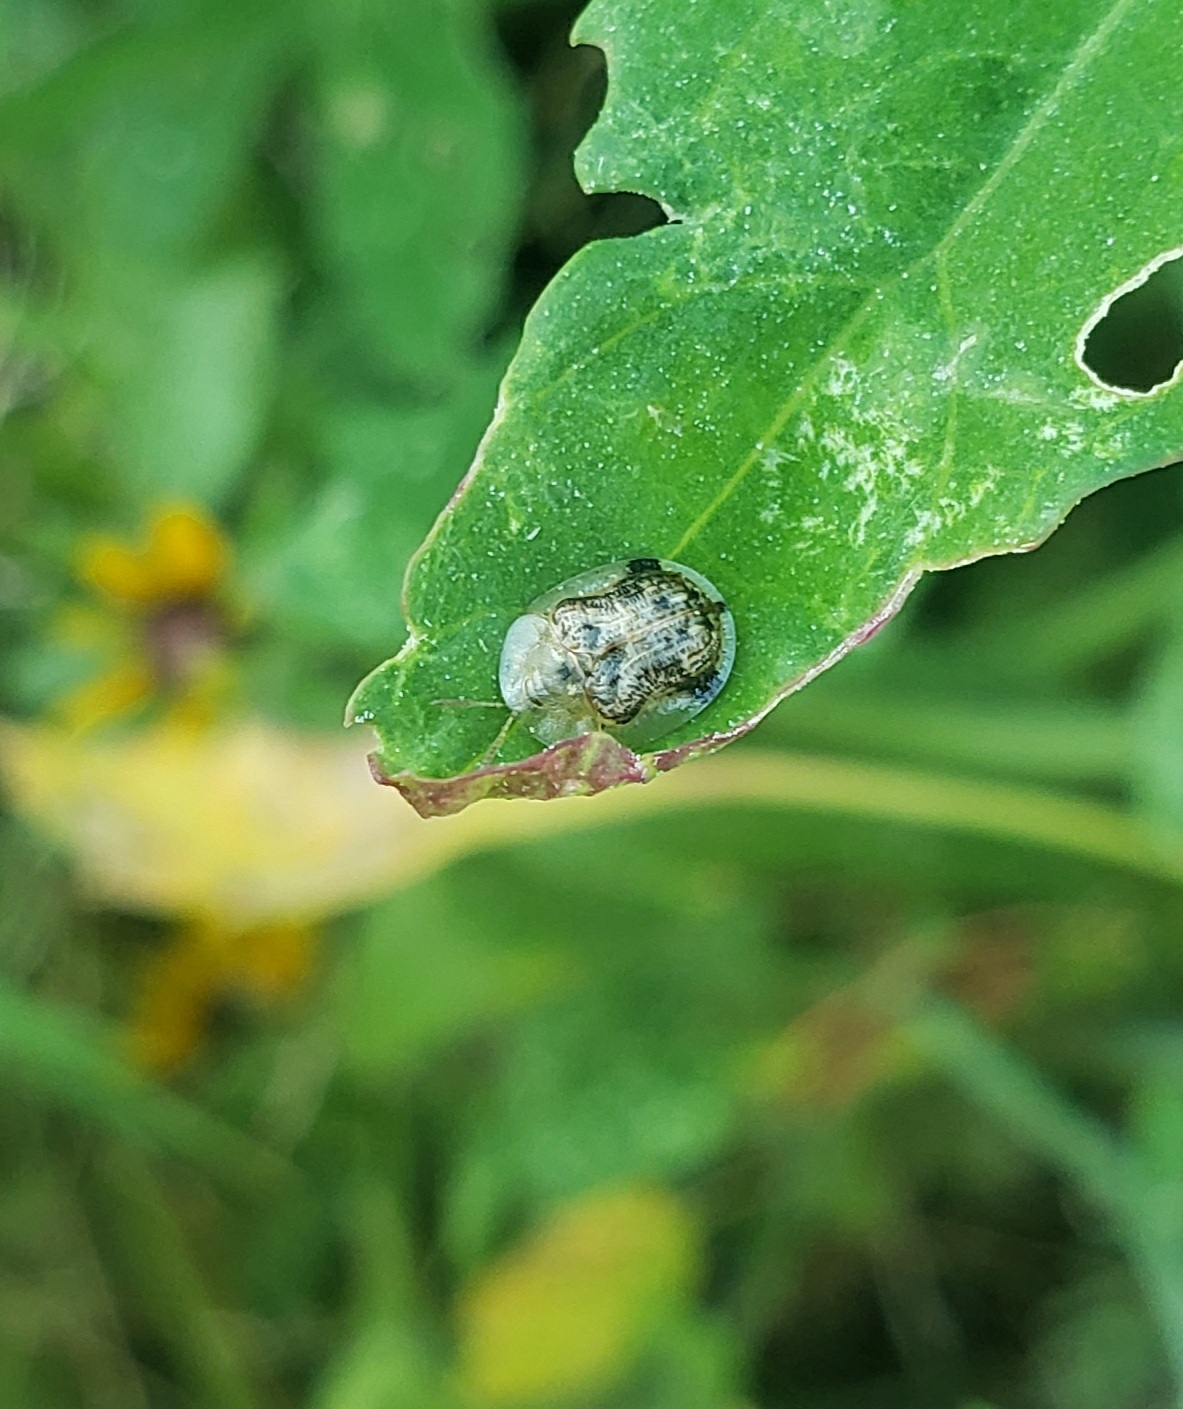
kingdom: Animalia
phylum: Arthropoda
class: Insecta
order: Coleoptera
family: Chrysomelidae
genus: Cassida
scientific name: Cassida piperata
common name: Small tortoise beetle
